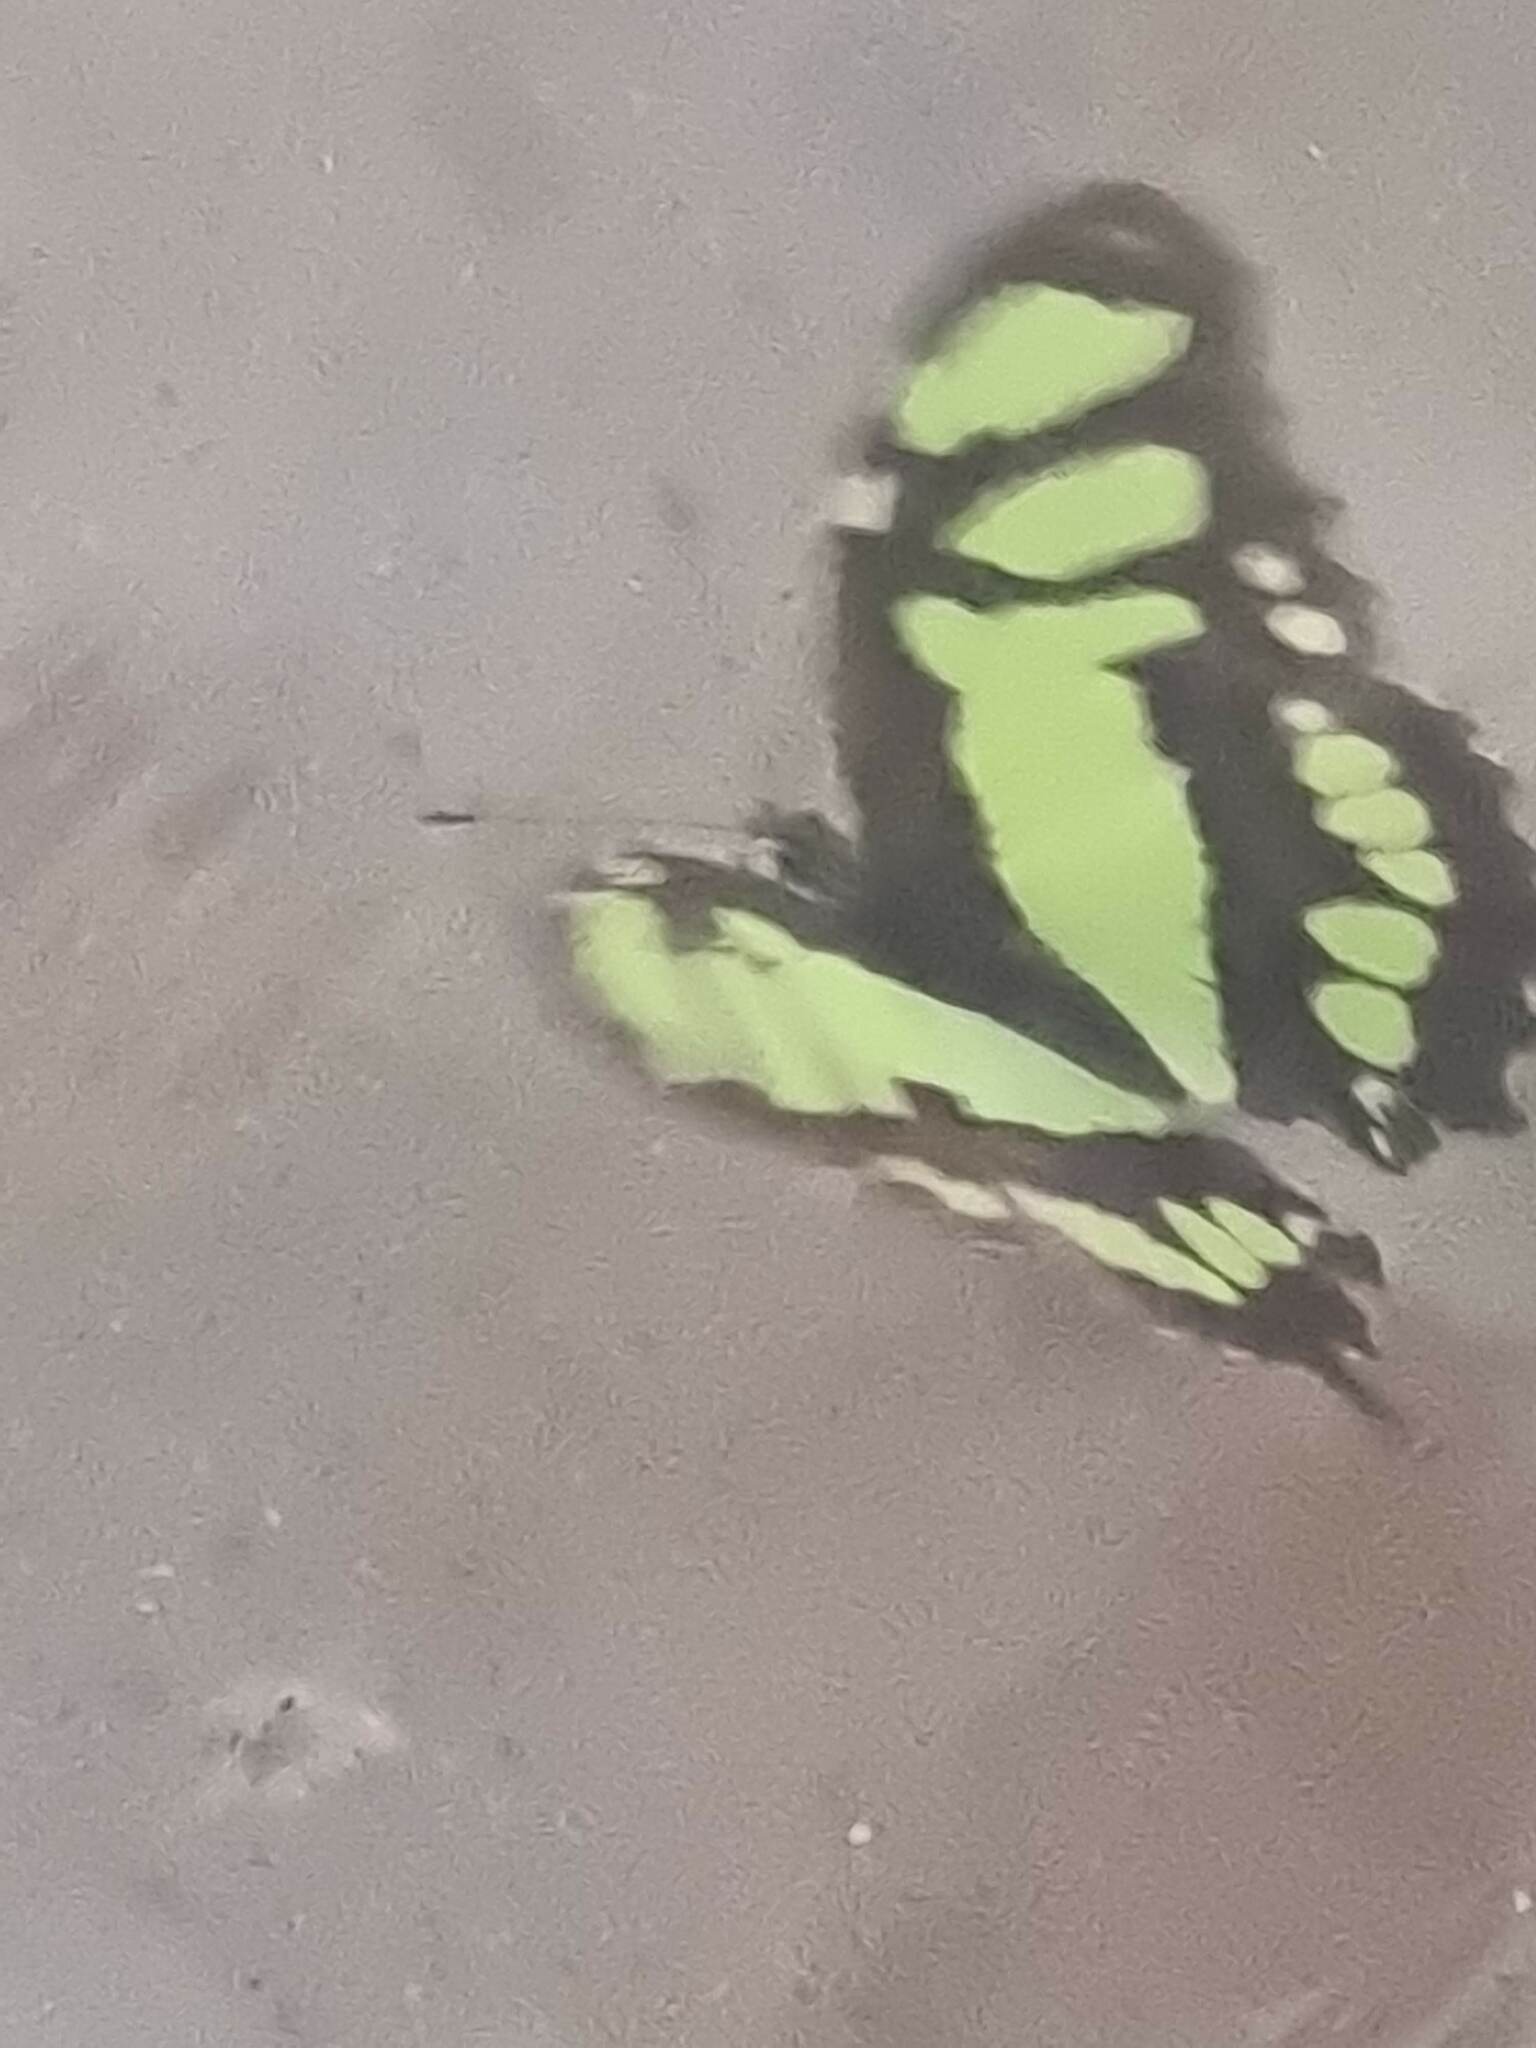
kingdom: Animalia
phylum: Arthropoda
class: Insecta
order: Lepidoptera
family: Nymphalidae
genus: Siproeta
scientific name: Siproeta stelenes
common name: Malachite
